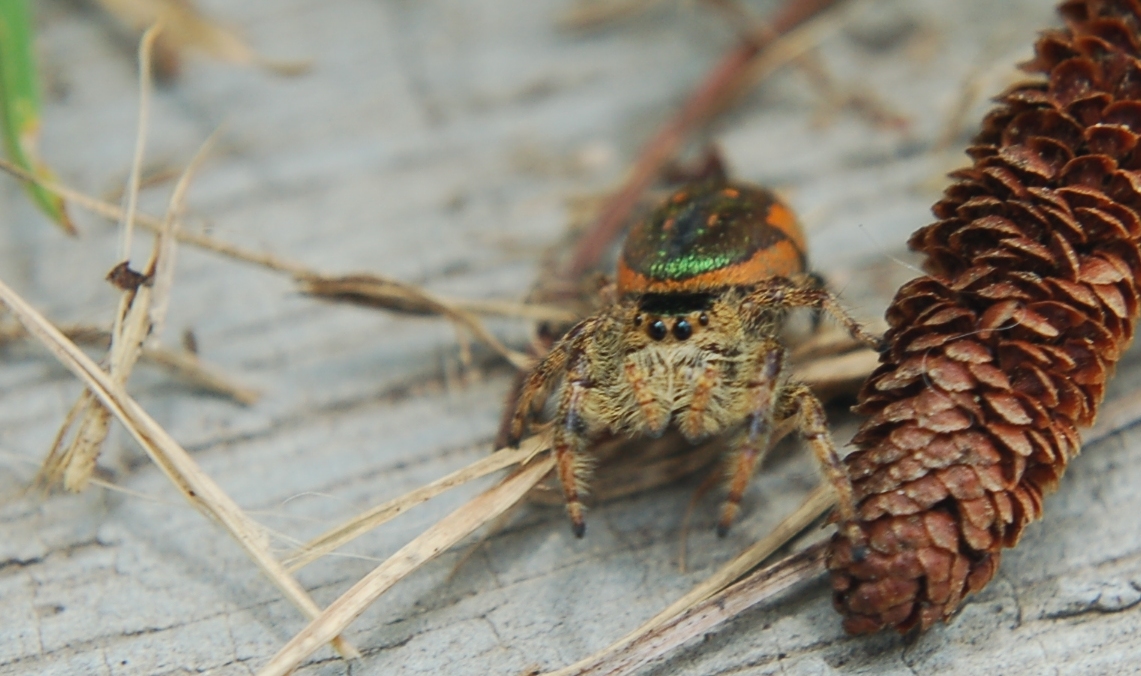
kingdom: Animalia
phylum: Arthropoda
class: Arachnida
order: Araneae
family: Salticidae
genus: Paraphidippus
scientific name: Paraphidippus aurantius
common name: Jumping spiders
